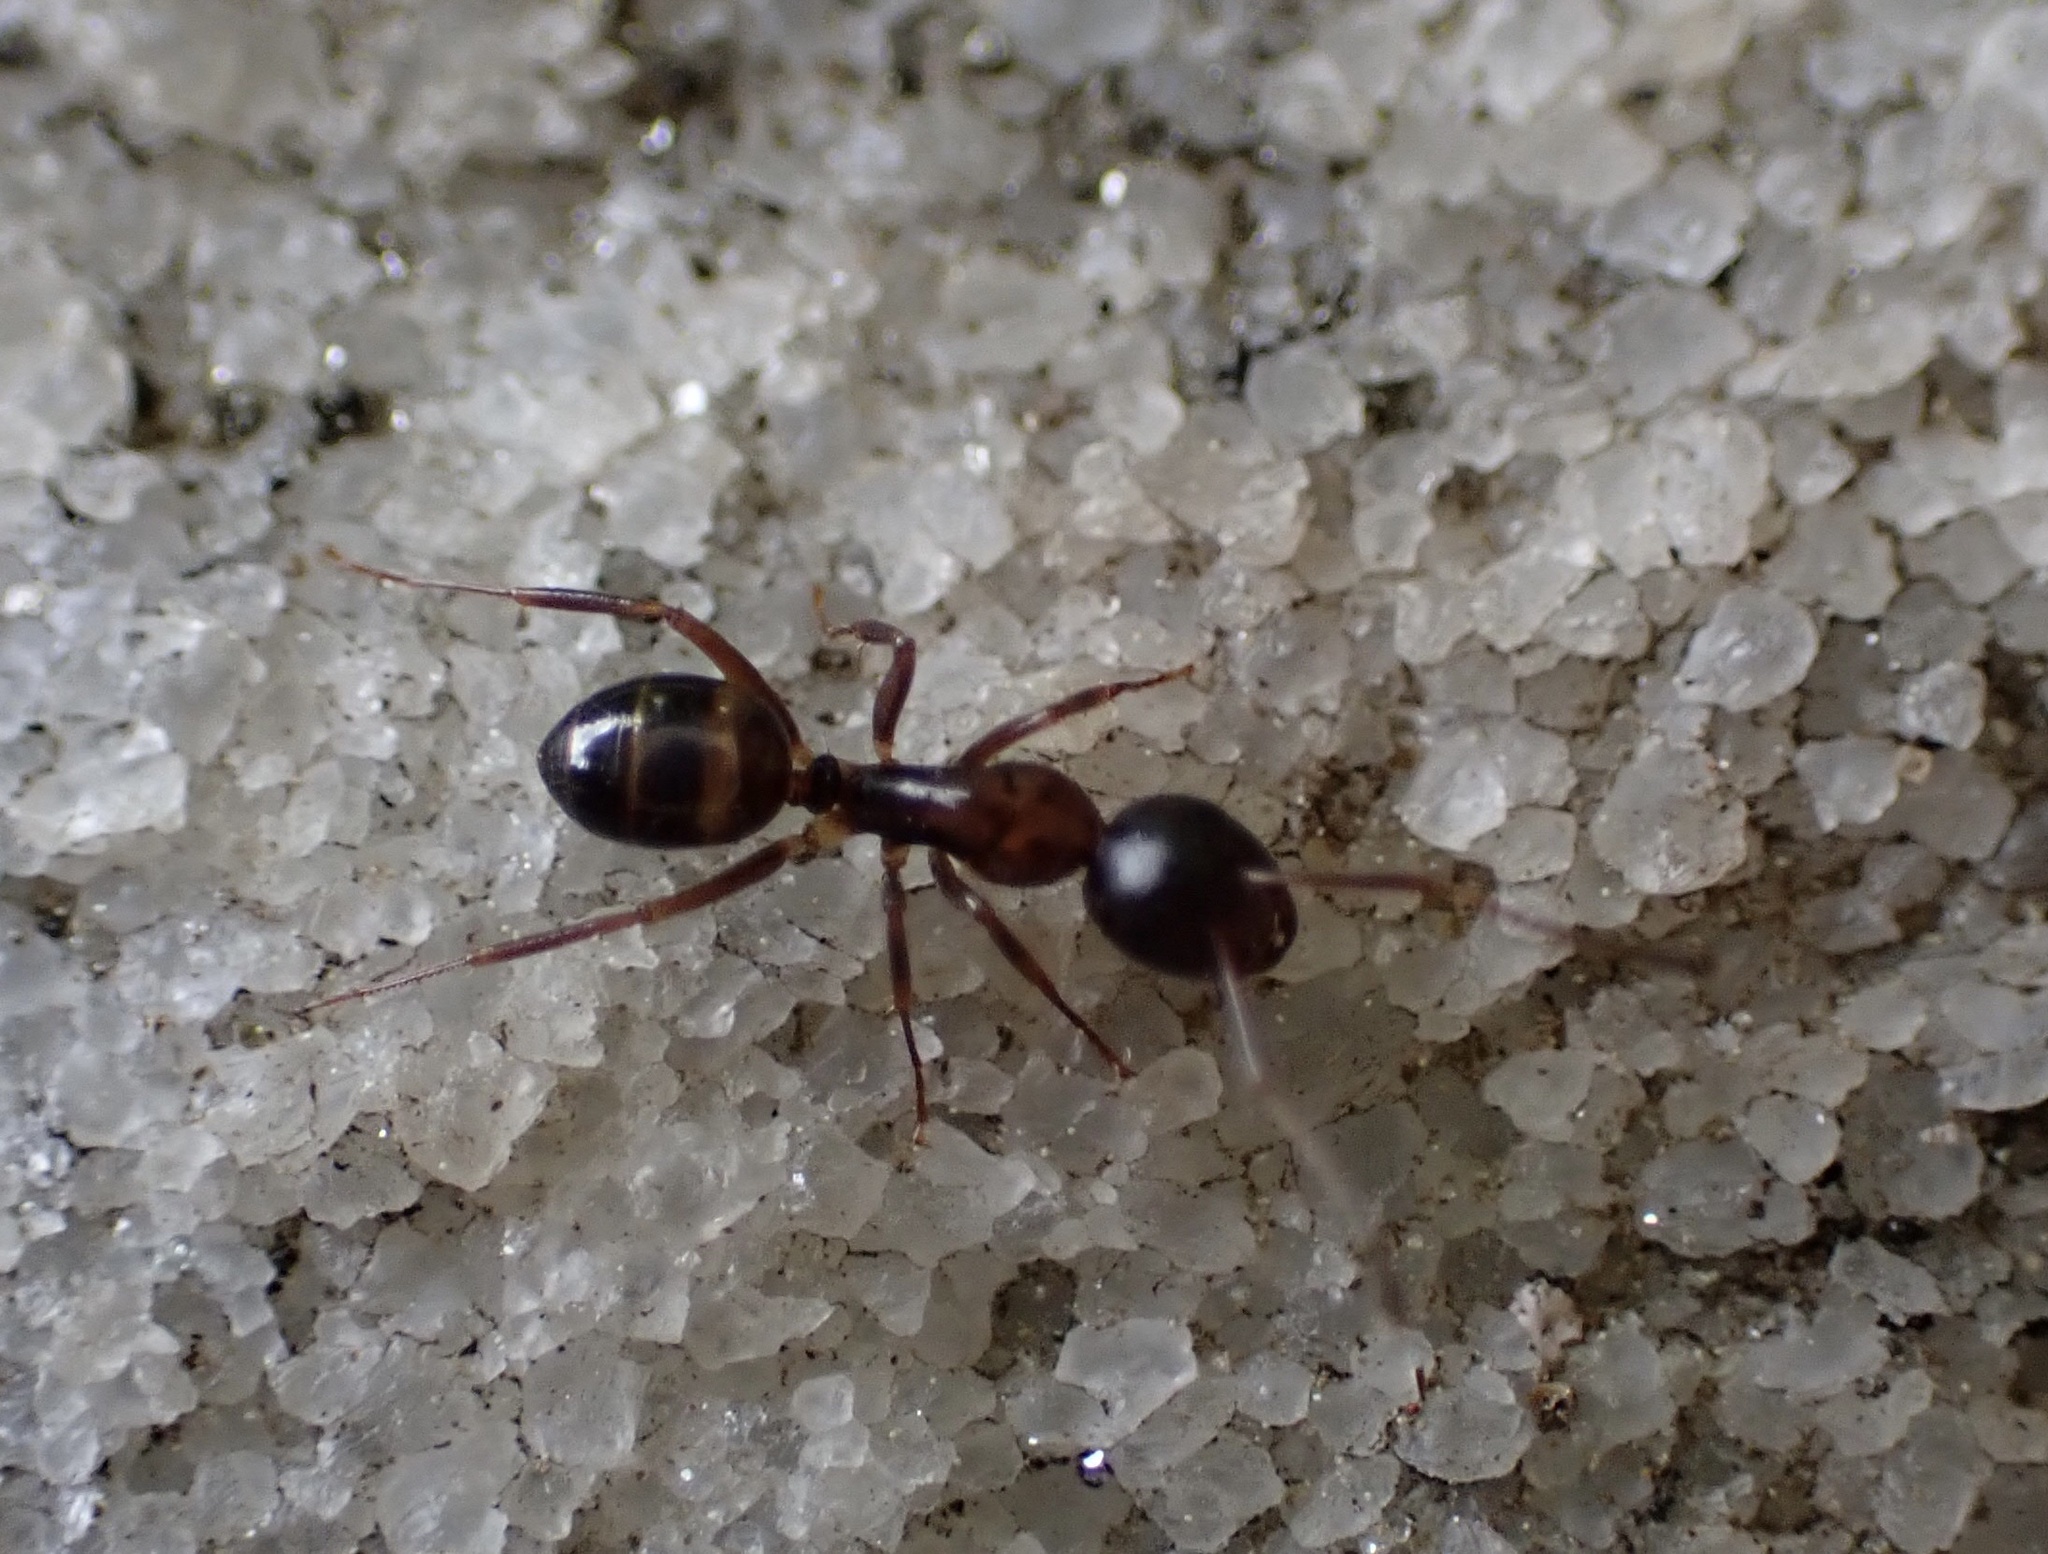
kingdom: Animalia
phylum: Arthropoda
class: Insecta
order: Hymenoptera
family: Formicidae
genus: Camponotus
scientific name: Camponotus subbarbatus
